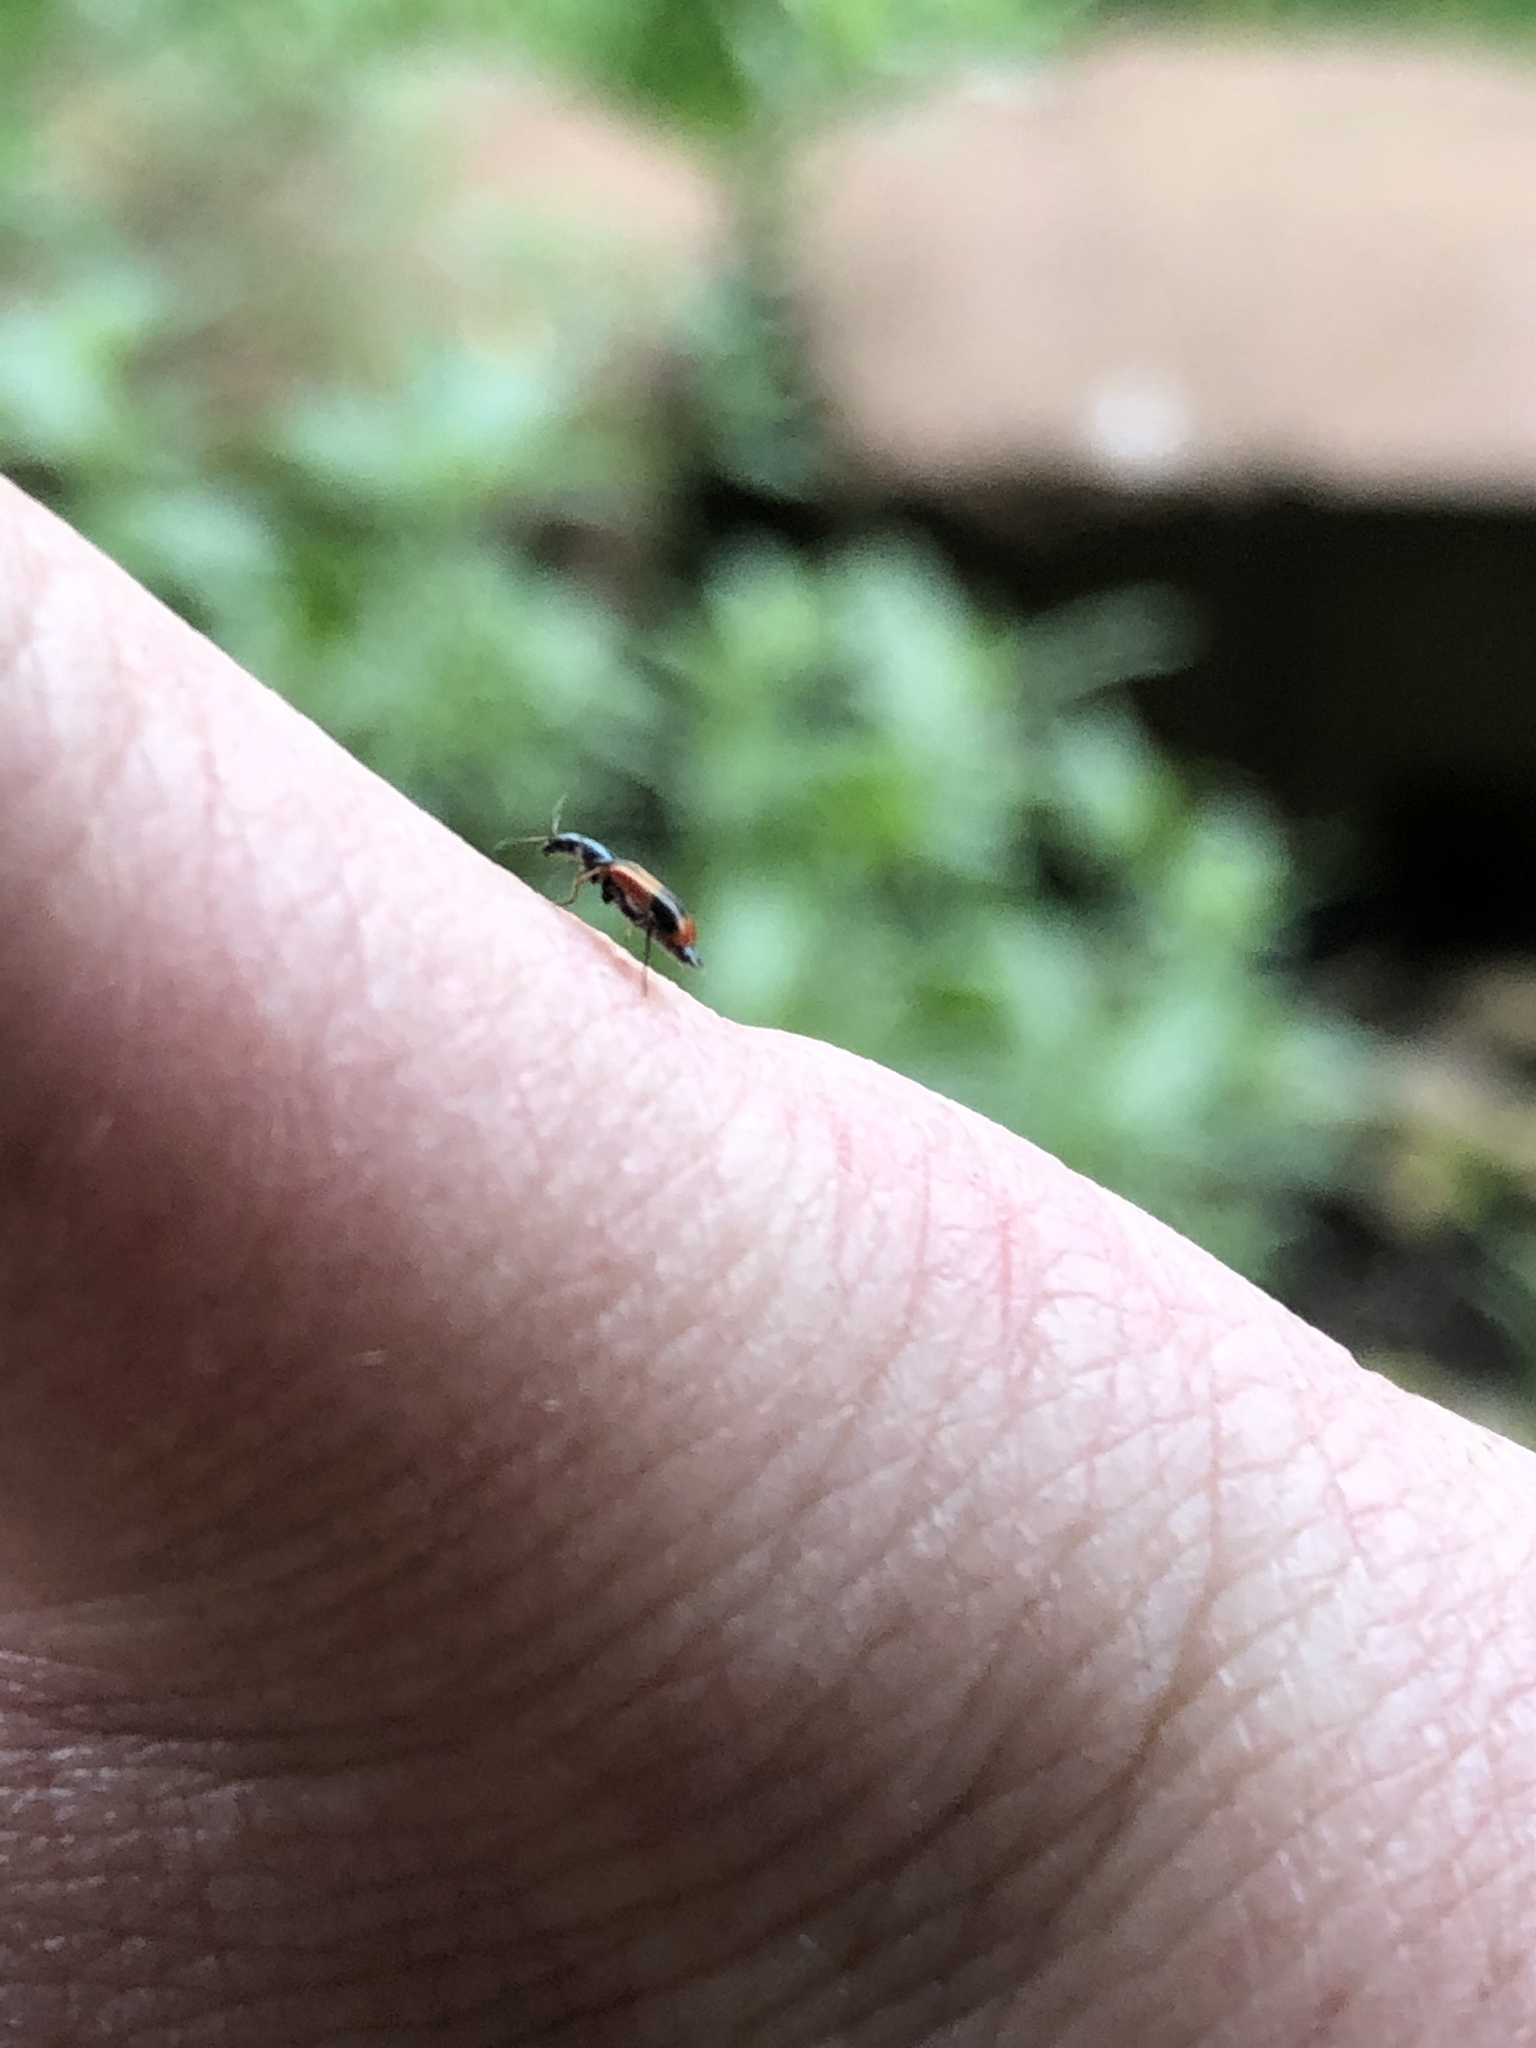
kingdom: Animalia
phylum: Arthropoda
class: Insecta
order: Coleoptera
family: Melyridae
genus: Anthocomus
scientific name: Anthocomus equestris
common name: Black-banded soft-winged flower beetle
